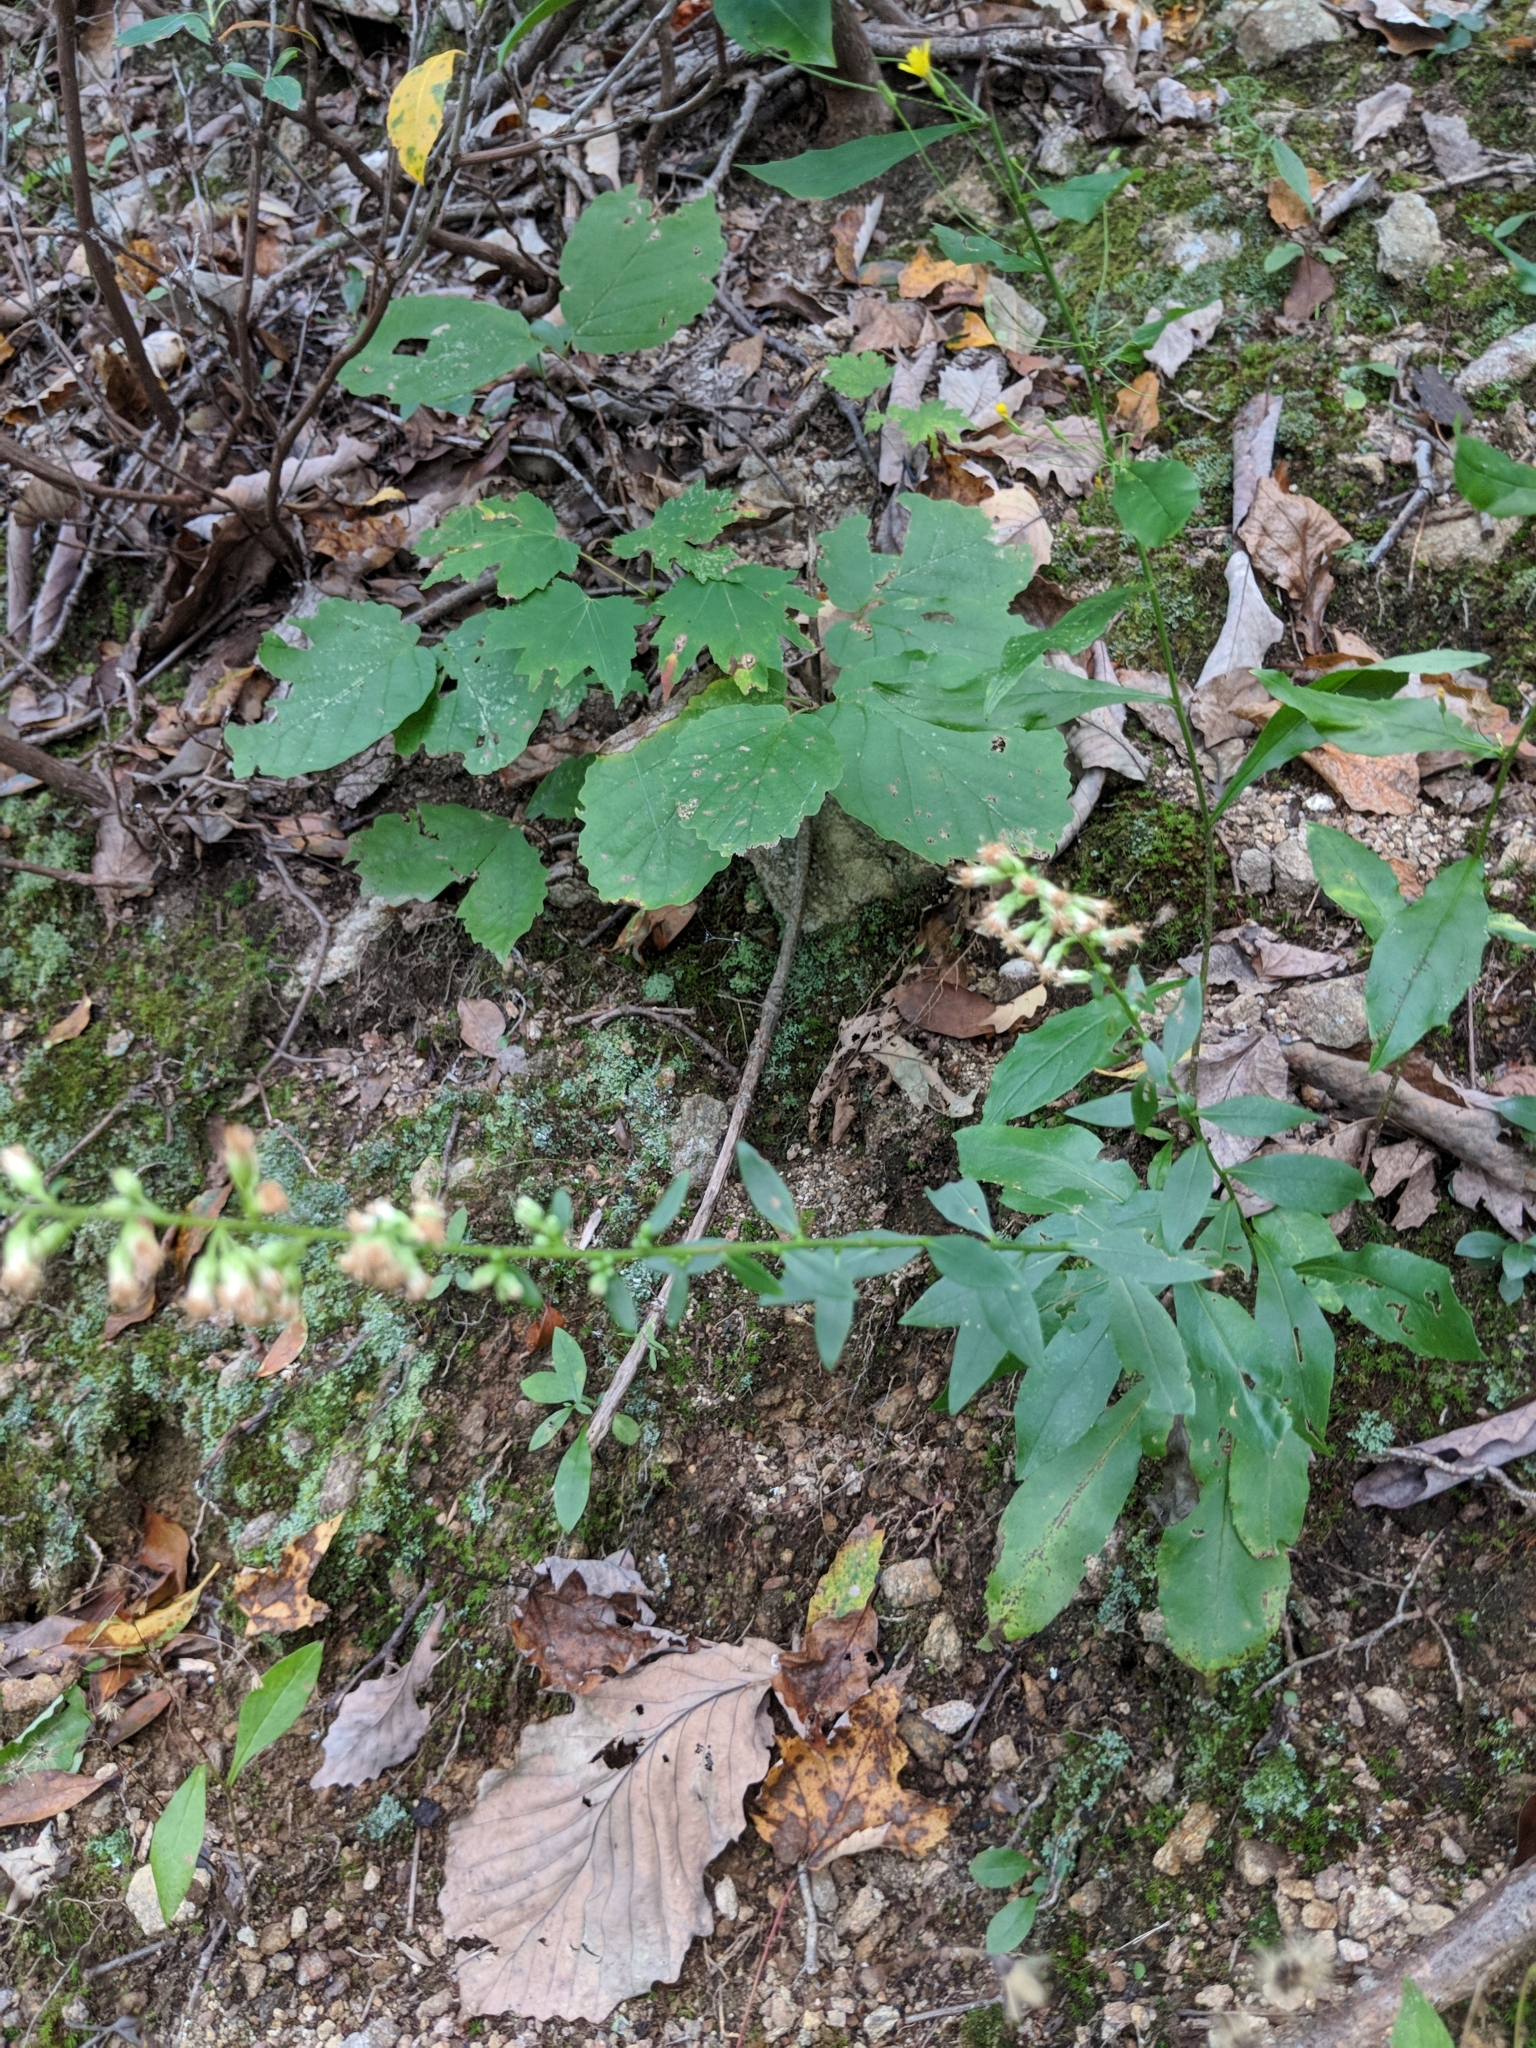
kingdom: Plantae
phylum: Tracheophyta
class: Magnoliopsida
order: Asterales
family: Asteraceae
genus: Solidago
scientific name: Solidago bicolor
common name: Silverrod
